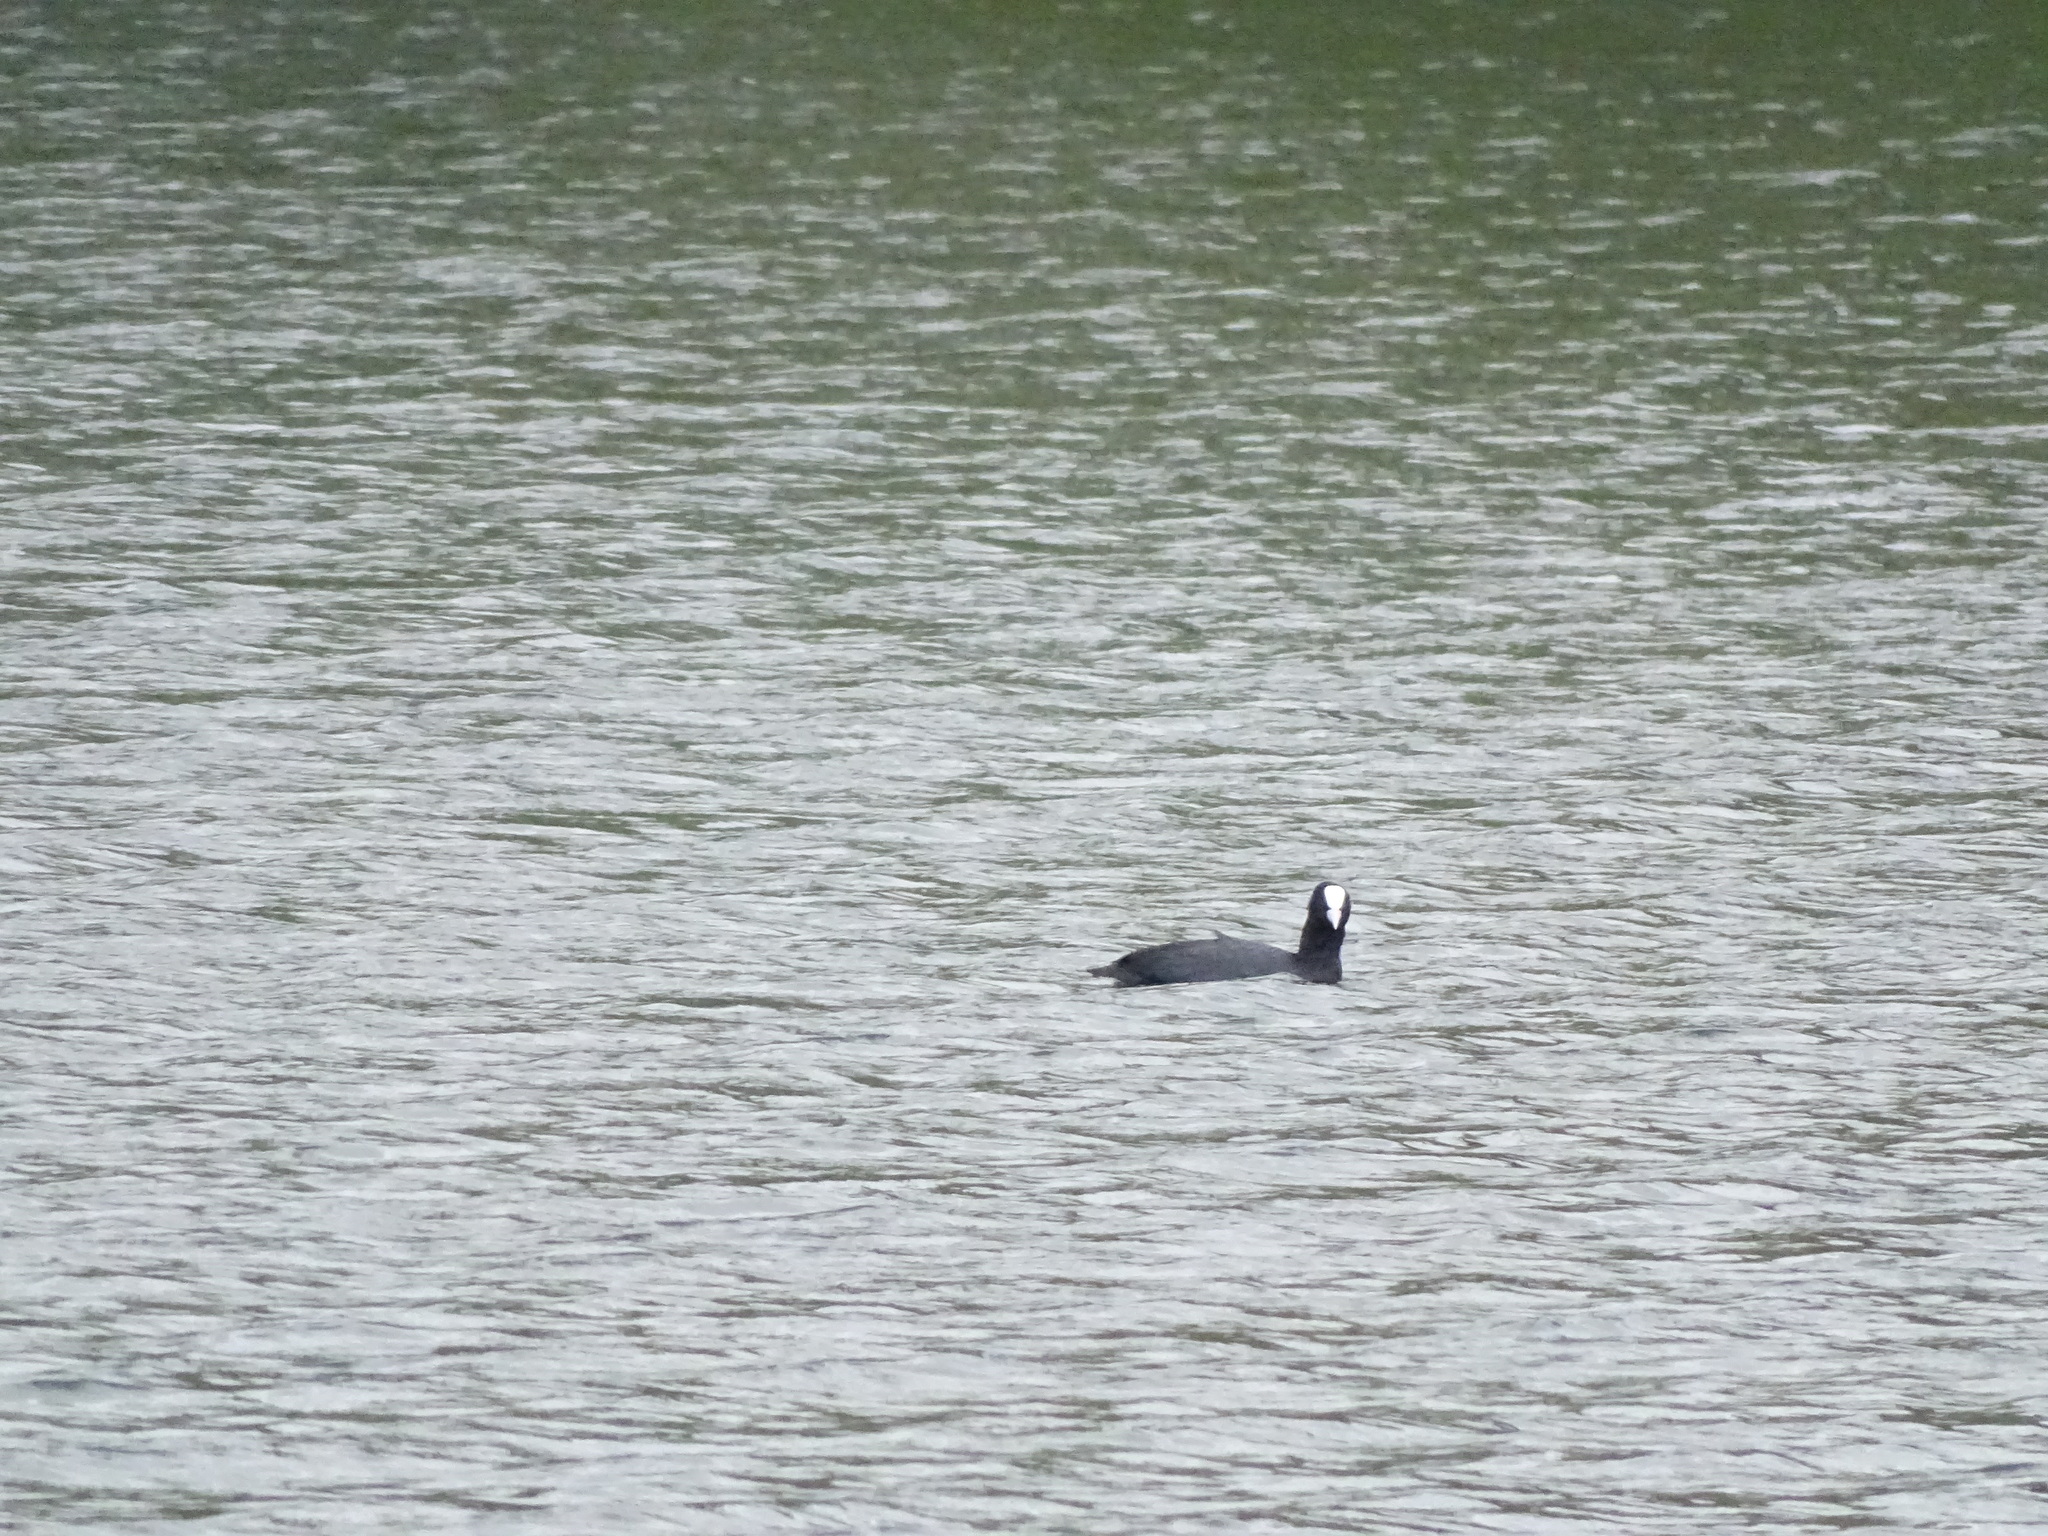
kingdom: Animalia
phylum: Chordata
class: Aves
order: Gruiformes
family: Rallidae
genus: Fulica
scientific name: Fulica atra
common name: Eurasian coot
